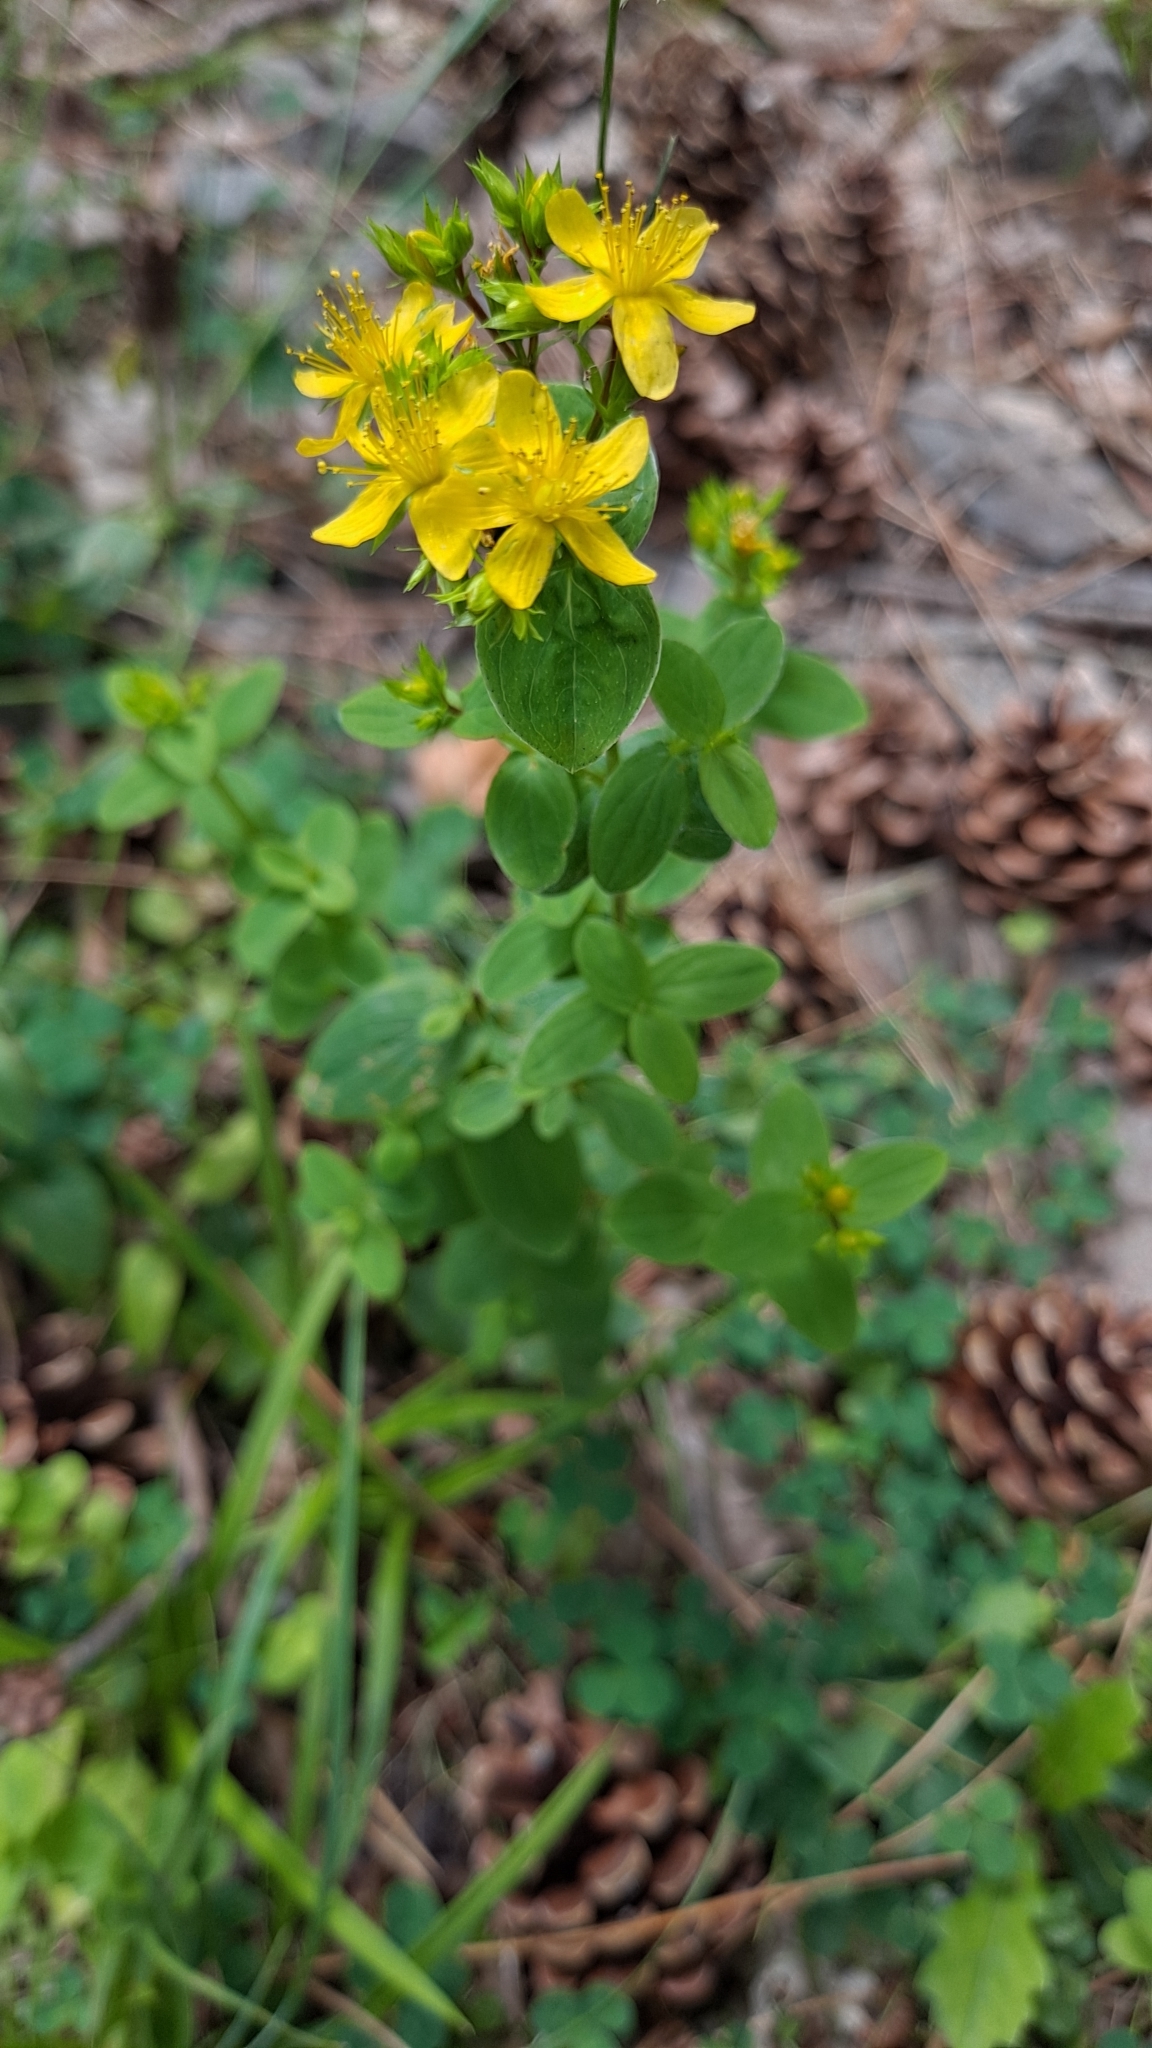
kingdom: Plantae
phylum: Tracheophyta
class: Magnoliopsida
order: Malpighiales
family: Hypericaceae
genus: Hypericum
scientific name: Hypericum tetrapterum
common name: Square-stalked st. john's-wort
